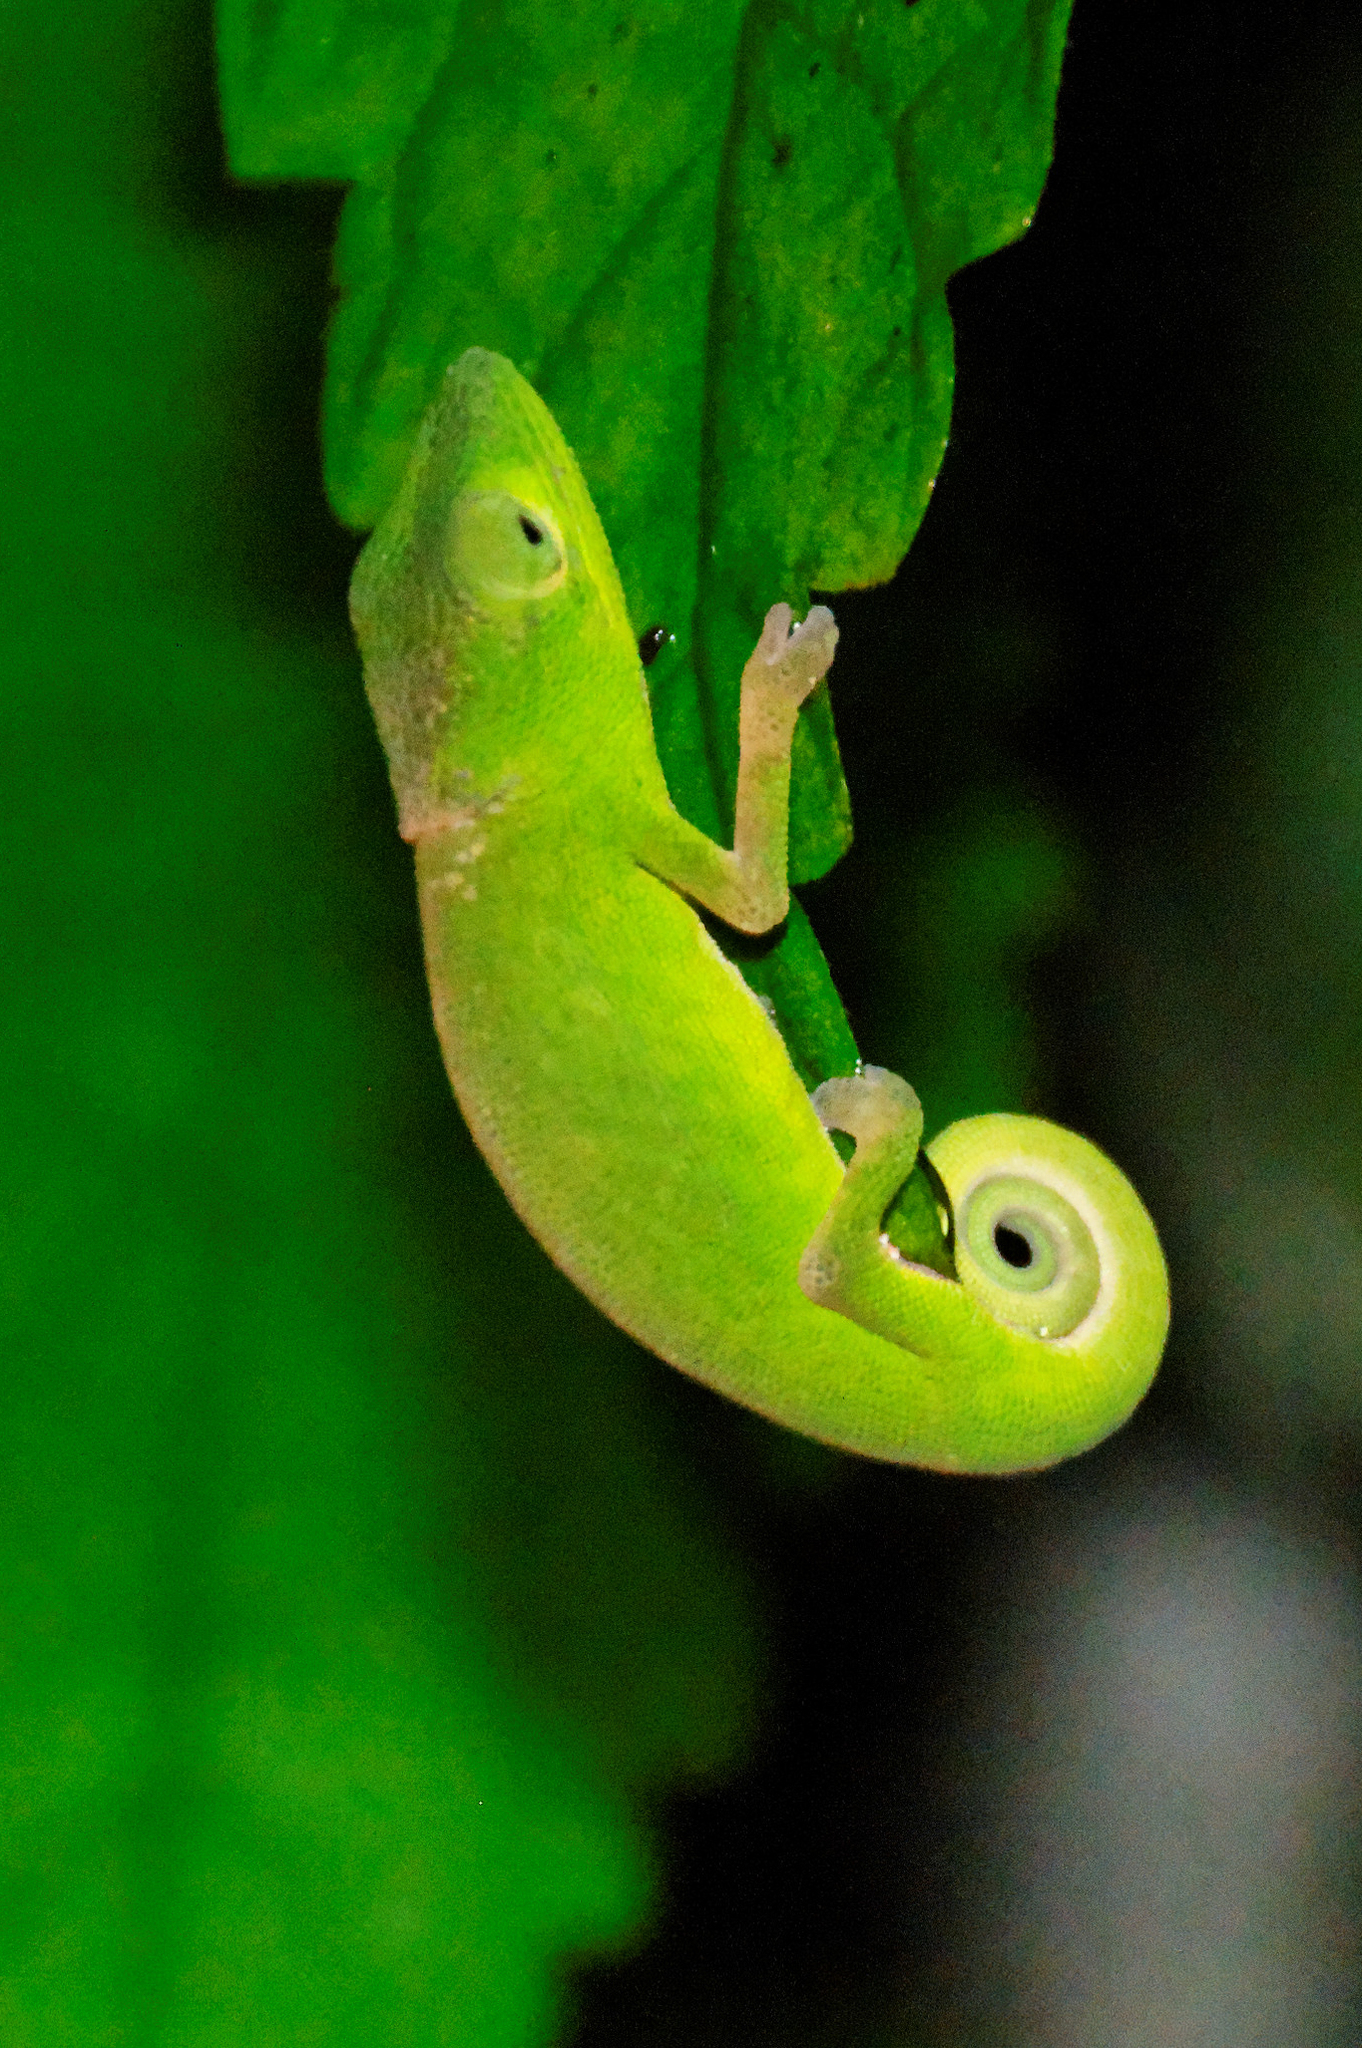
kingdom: Animalia
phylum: Chordata
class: Squamata
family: Chamaeleonidae
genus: Calumma
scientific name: Calumma glawi
